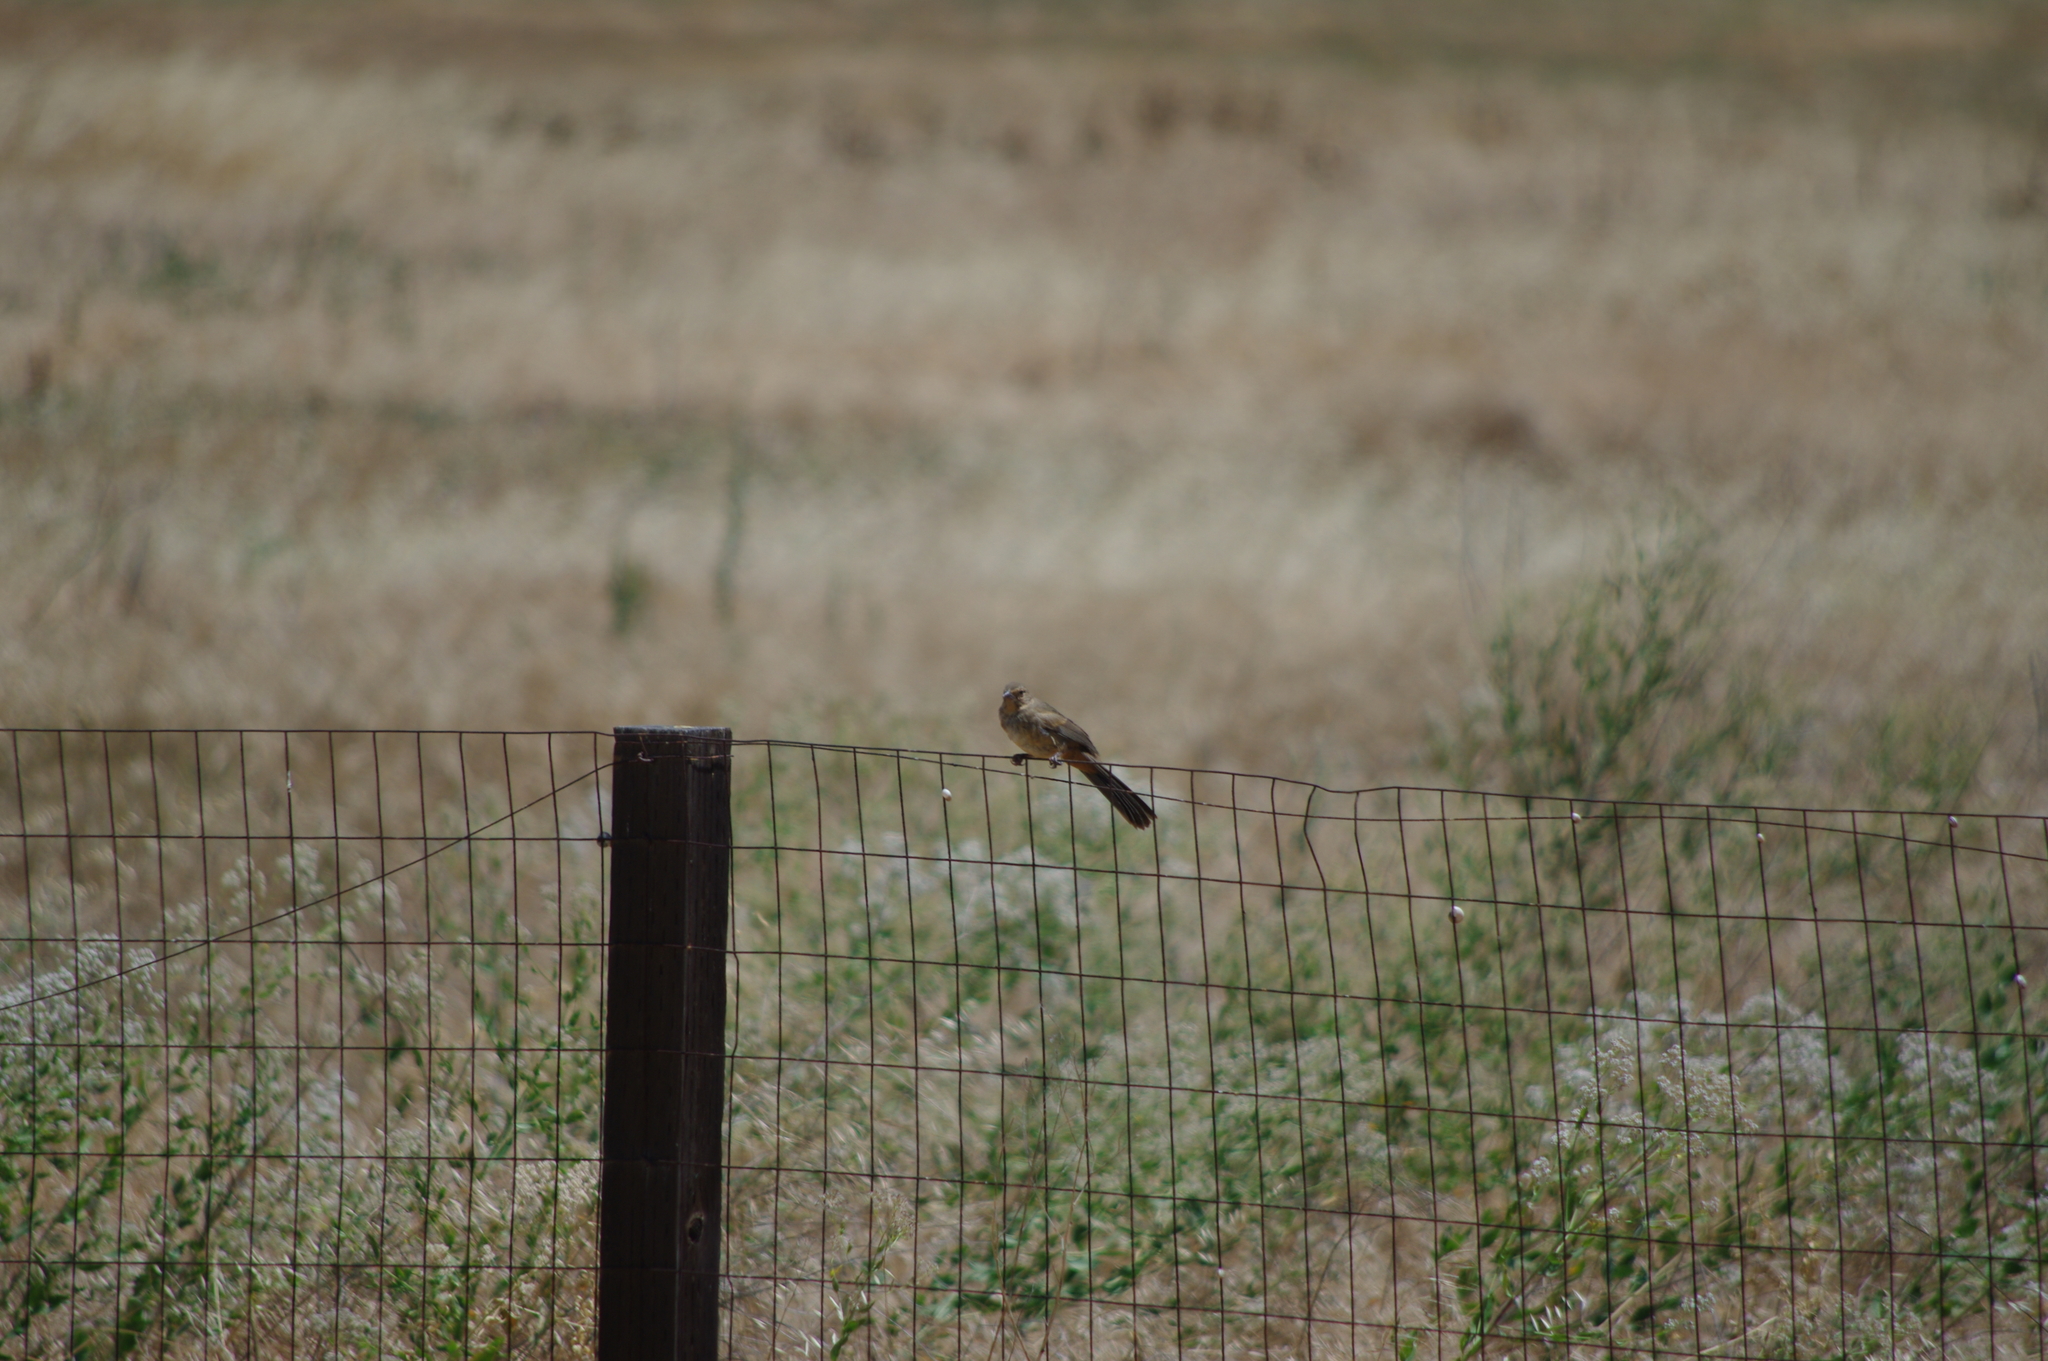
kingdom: Animalia
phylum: Chordata
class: Aves
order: Passeriformes
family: Passerellidae
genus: Melozone
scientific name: Melozone crissalis
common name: California towhee
